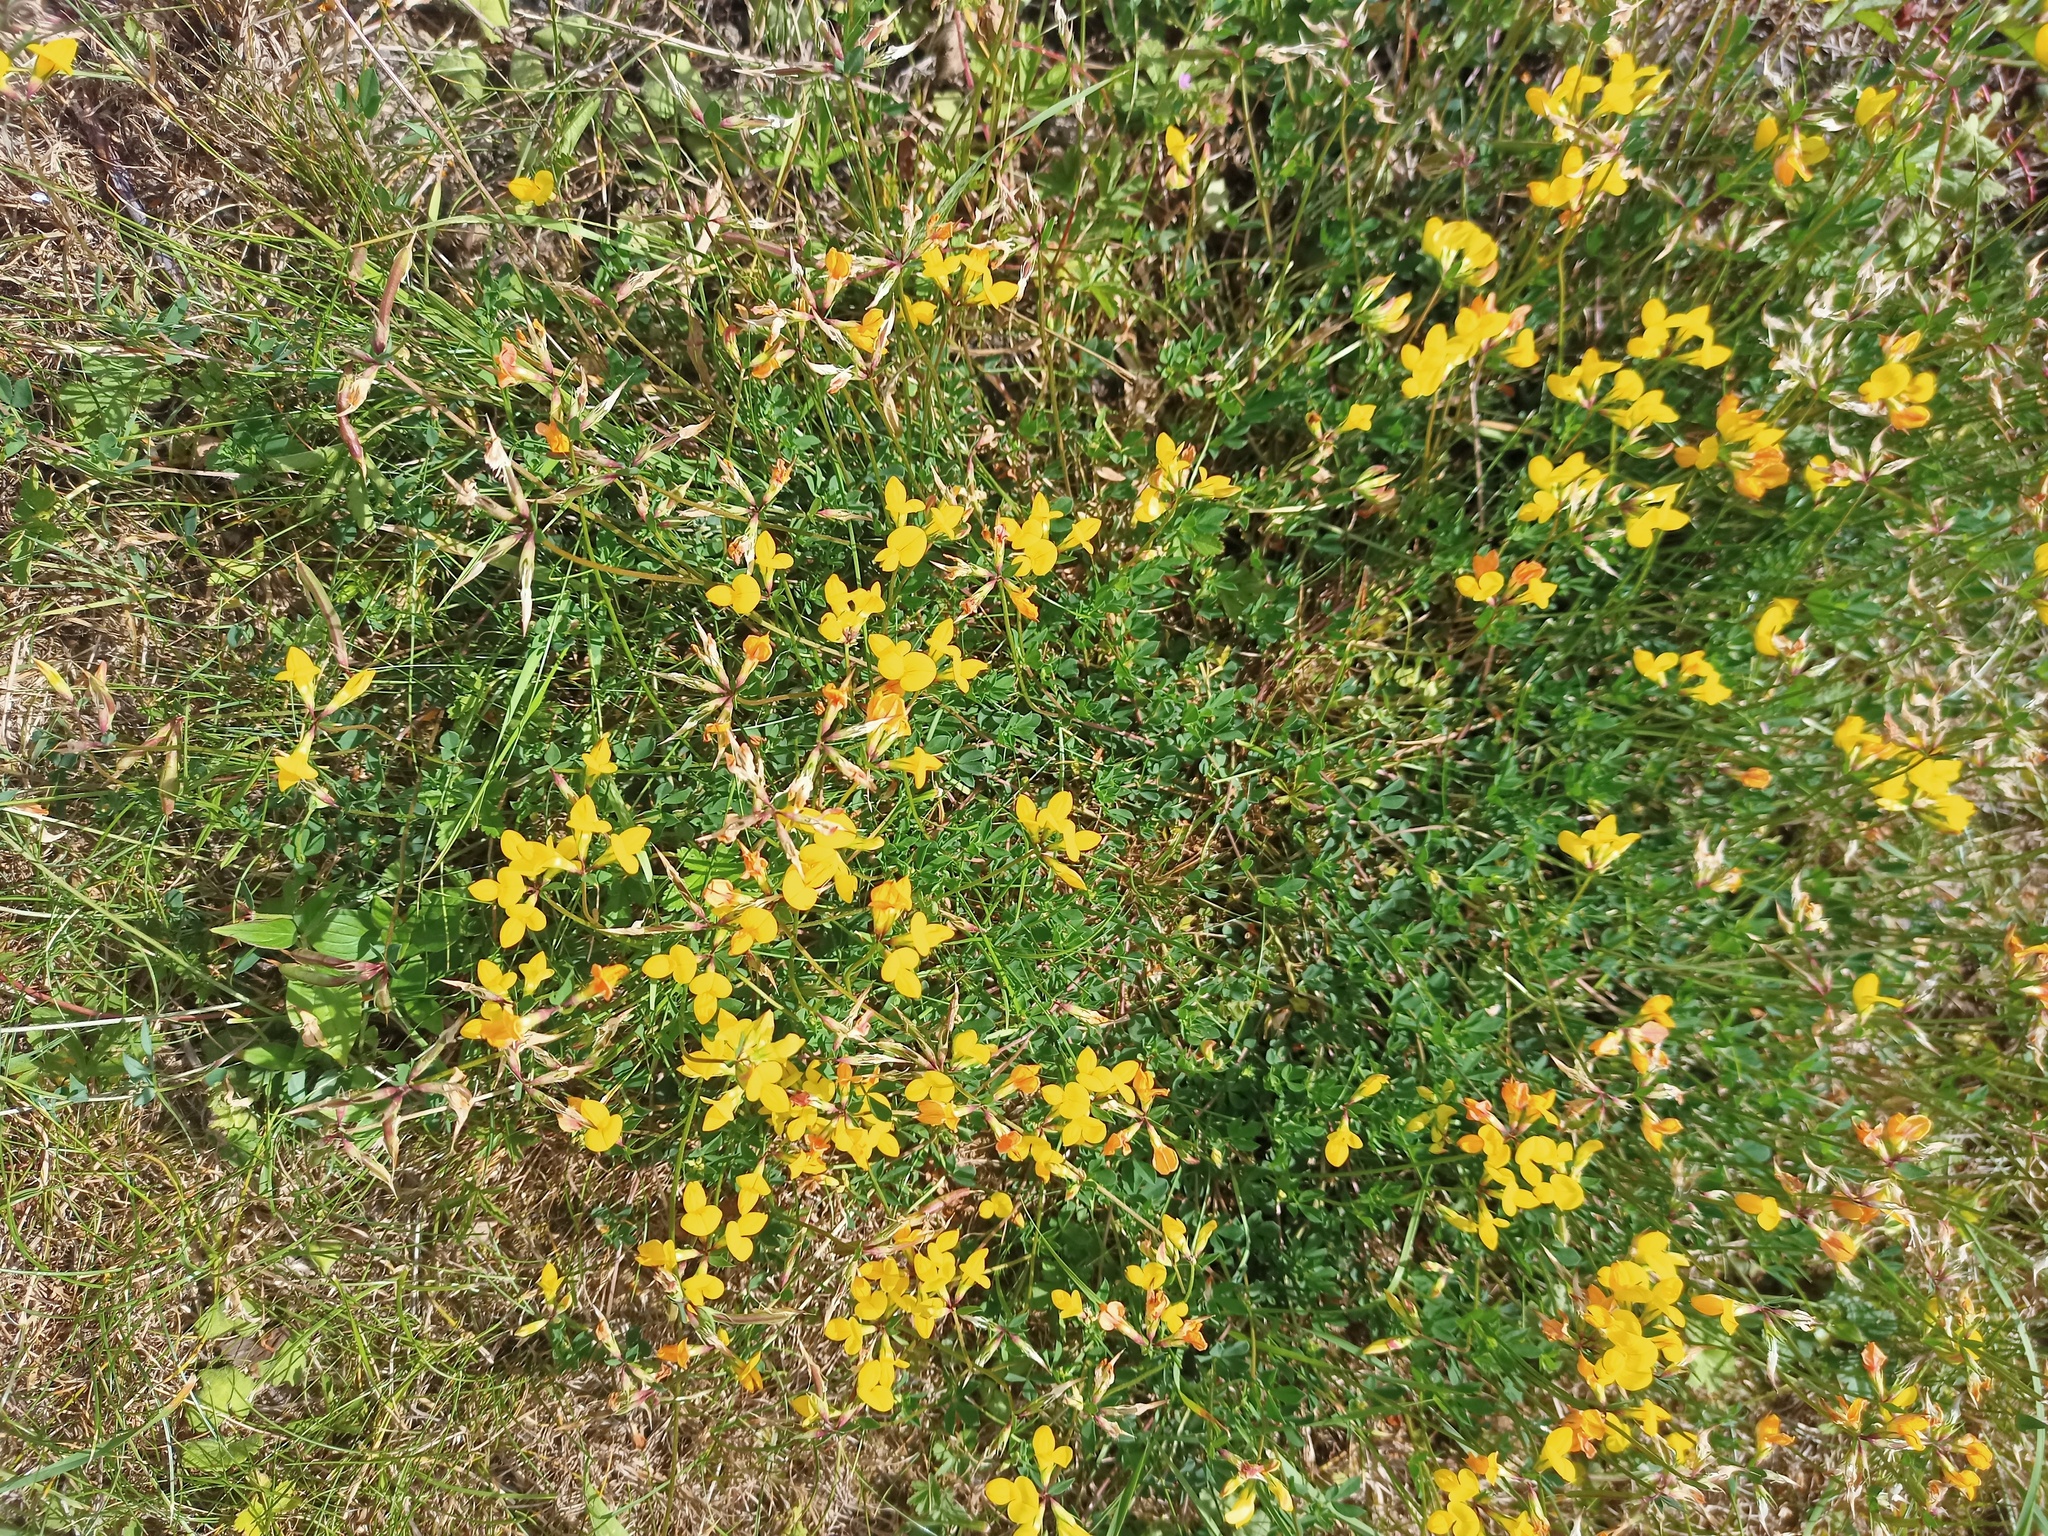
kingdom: Plantae
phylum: Tracheophyta
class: Magnoliopsida
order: Fabales
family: Fabaceae
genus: Lotus
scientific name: Lotus corniculatus
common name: Common bird's-foot-trefoil
